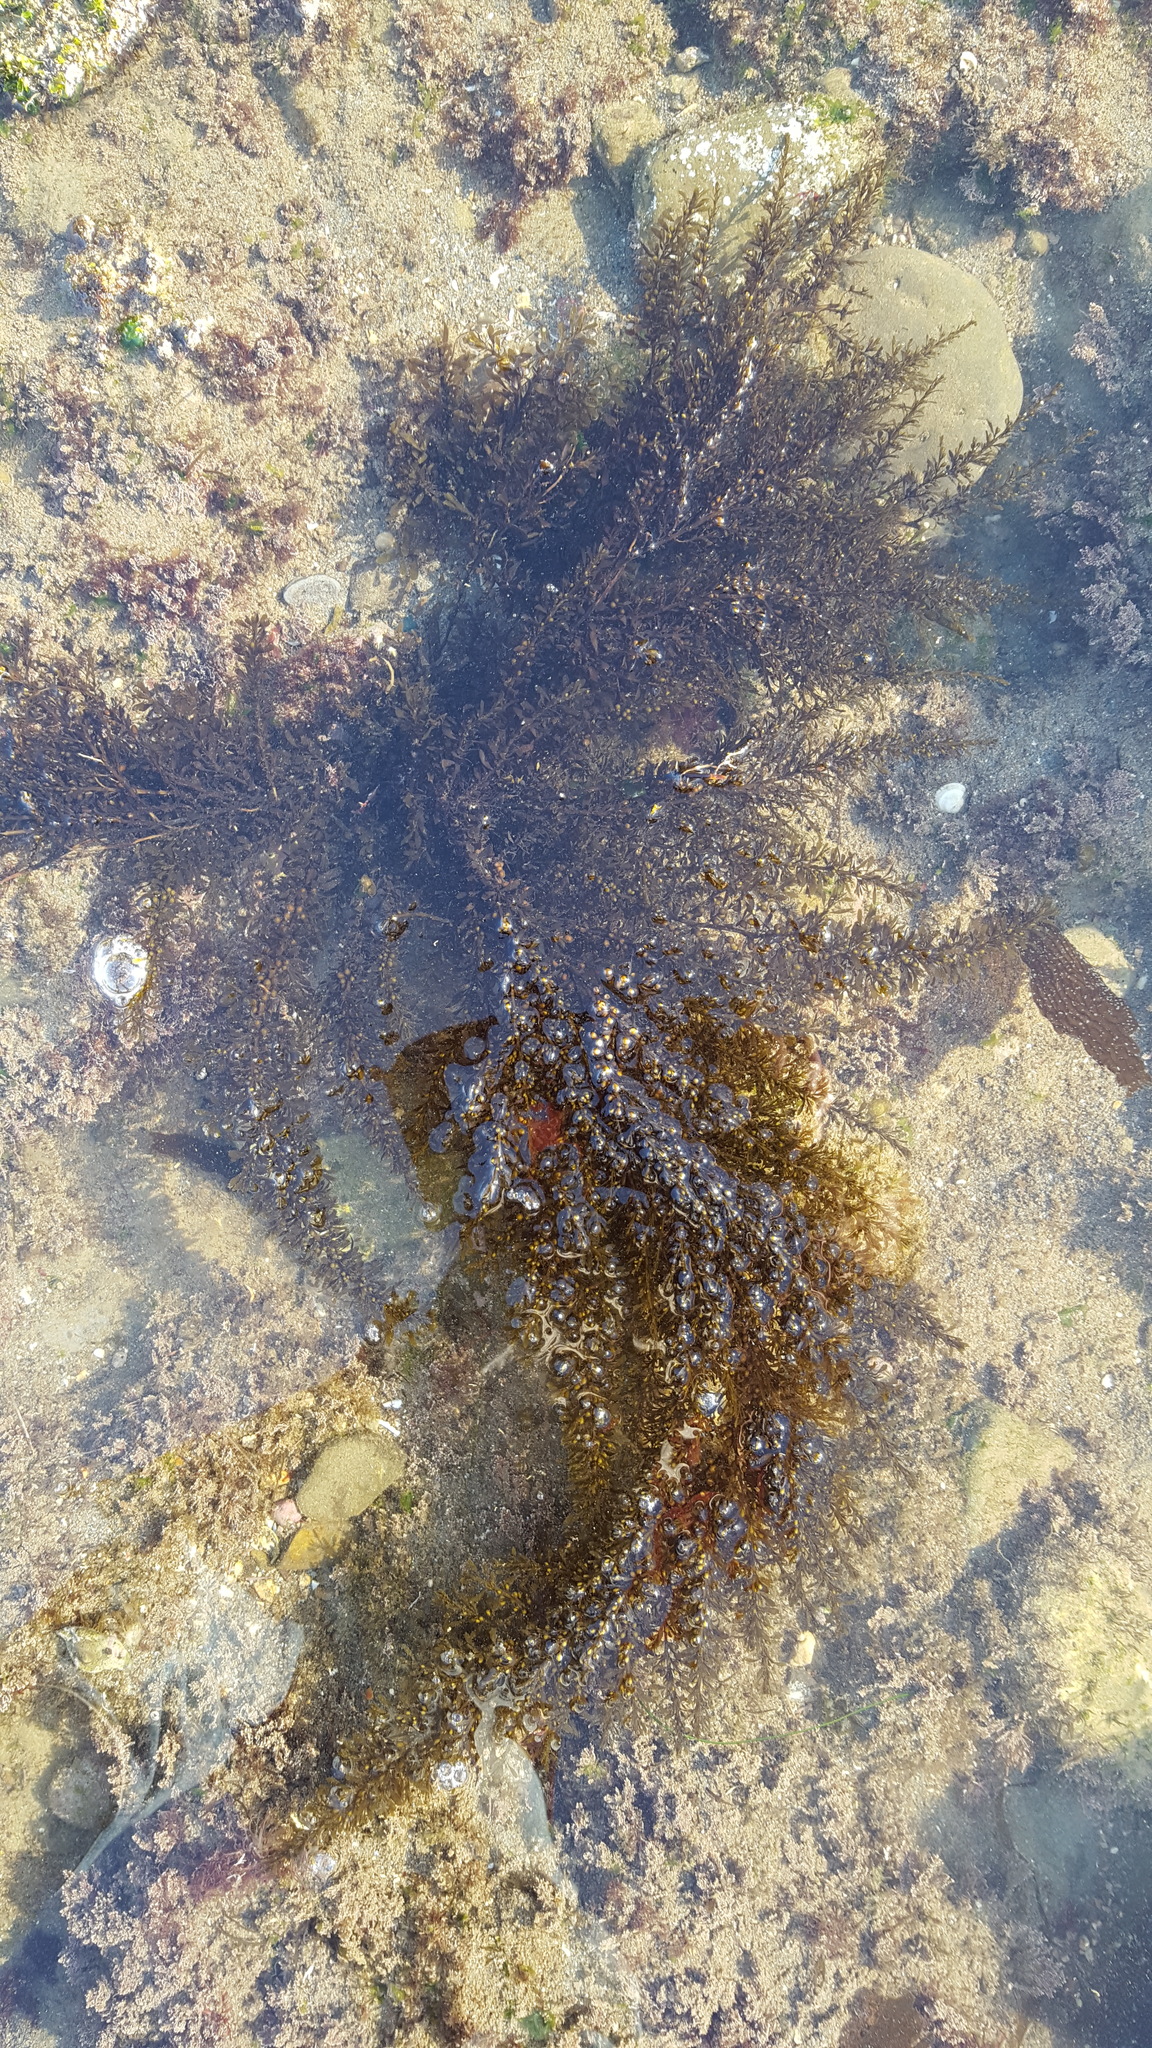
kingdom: Chromista
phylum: Ochrophyta
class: Phaeophyceae
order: Fucales
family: Sargassaceae
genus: Sargassum
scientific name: Sargassum muticum
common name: Japweed
